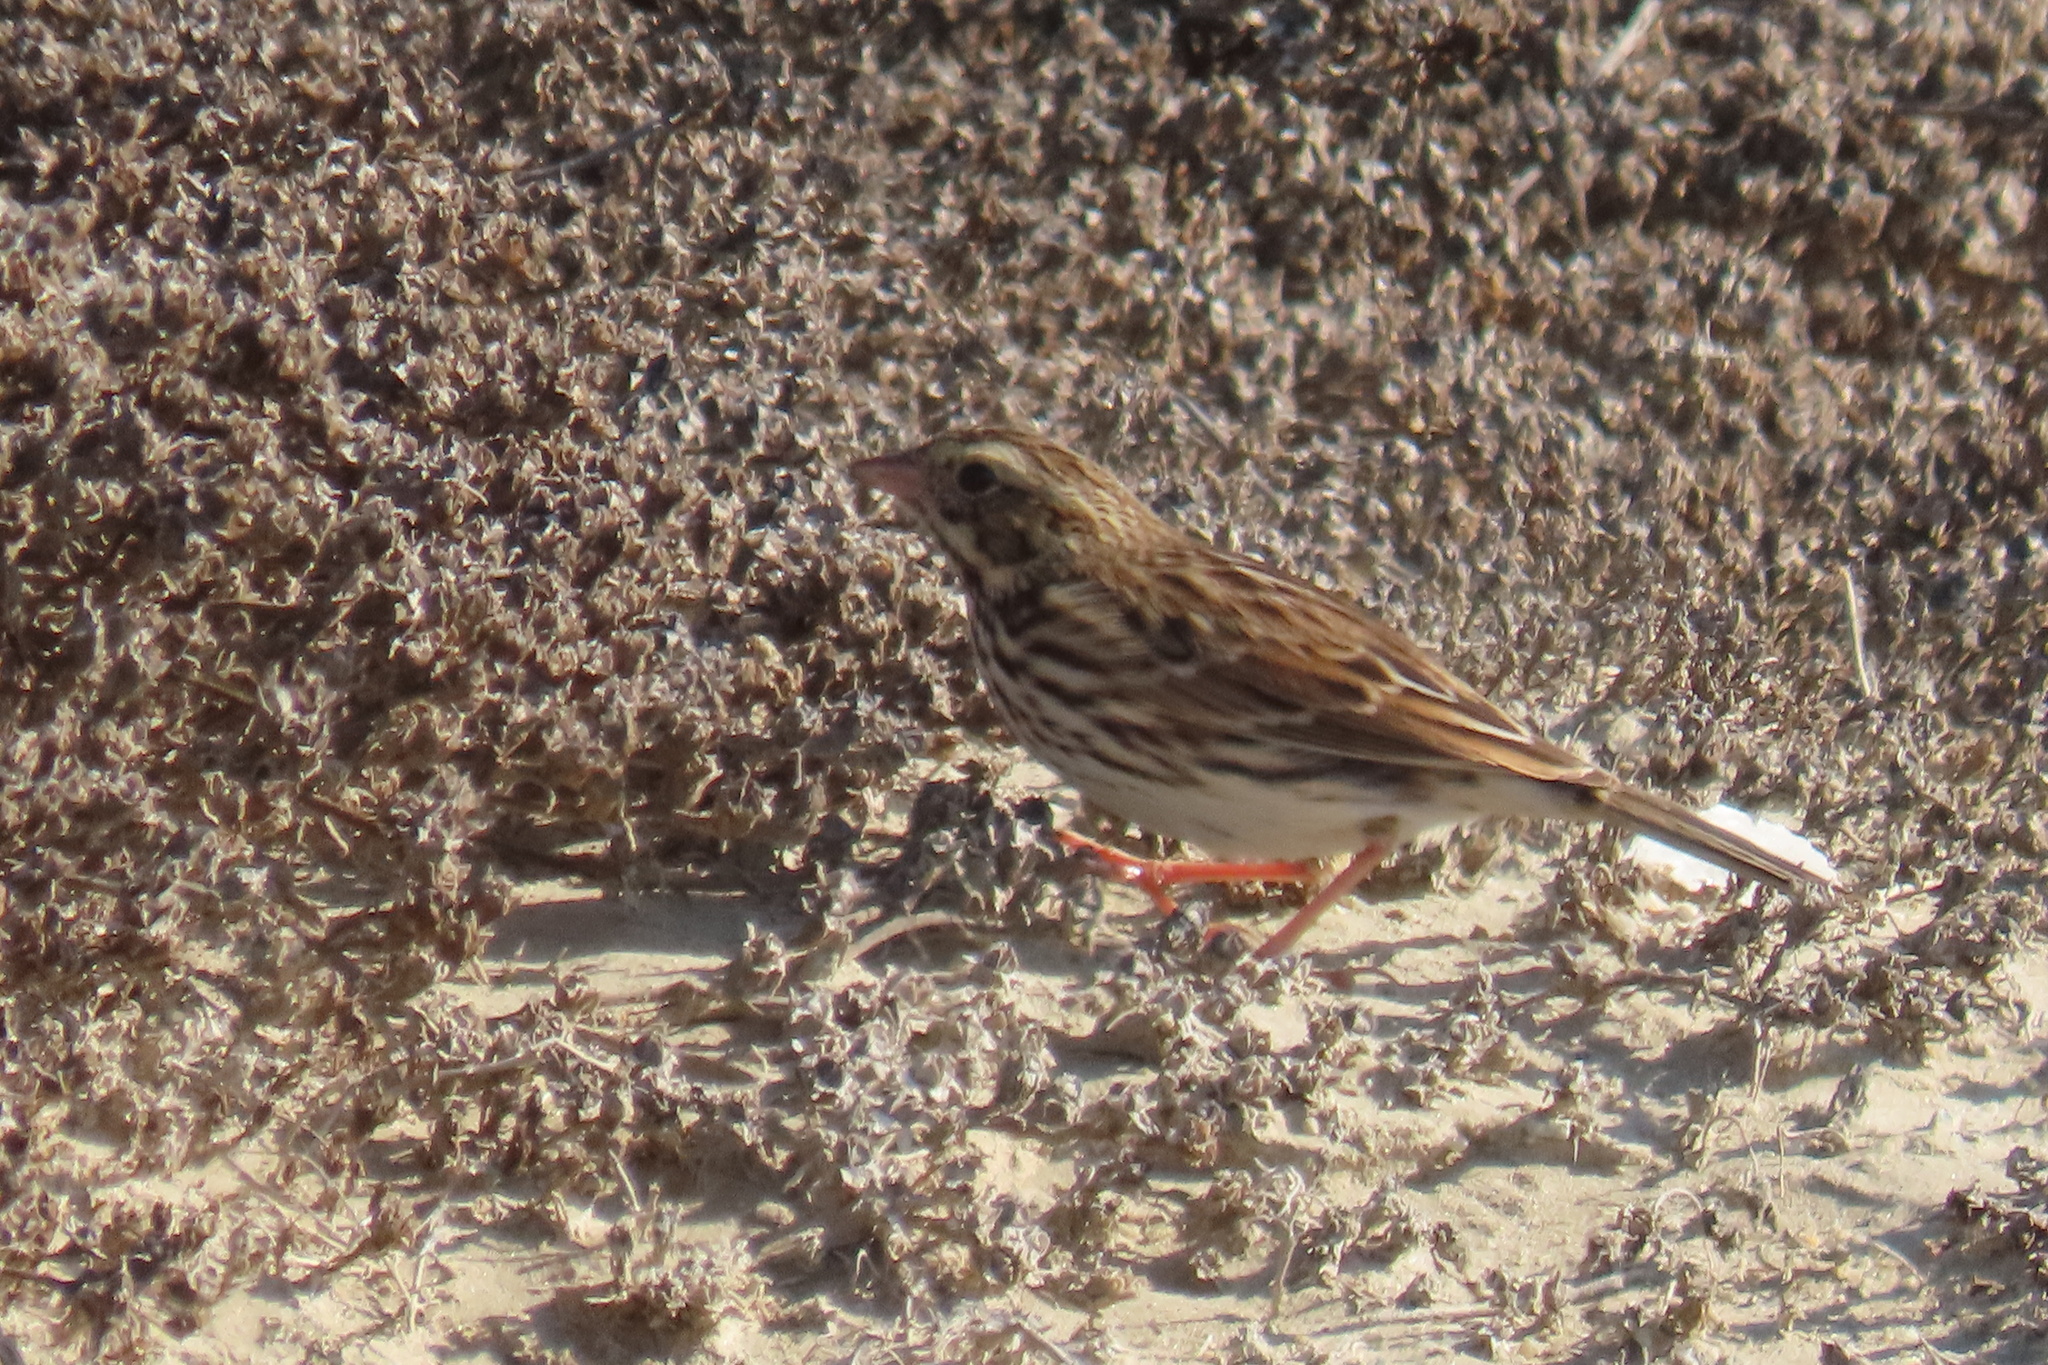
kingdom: Animalia
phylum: Chordata
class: Aves
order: Passeriformes
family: Passerellidae
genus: Passerculus
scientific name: Passerculus sandwichensis
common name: Savannah sparrow
